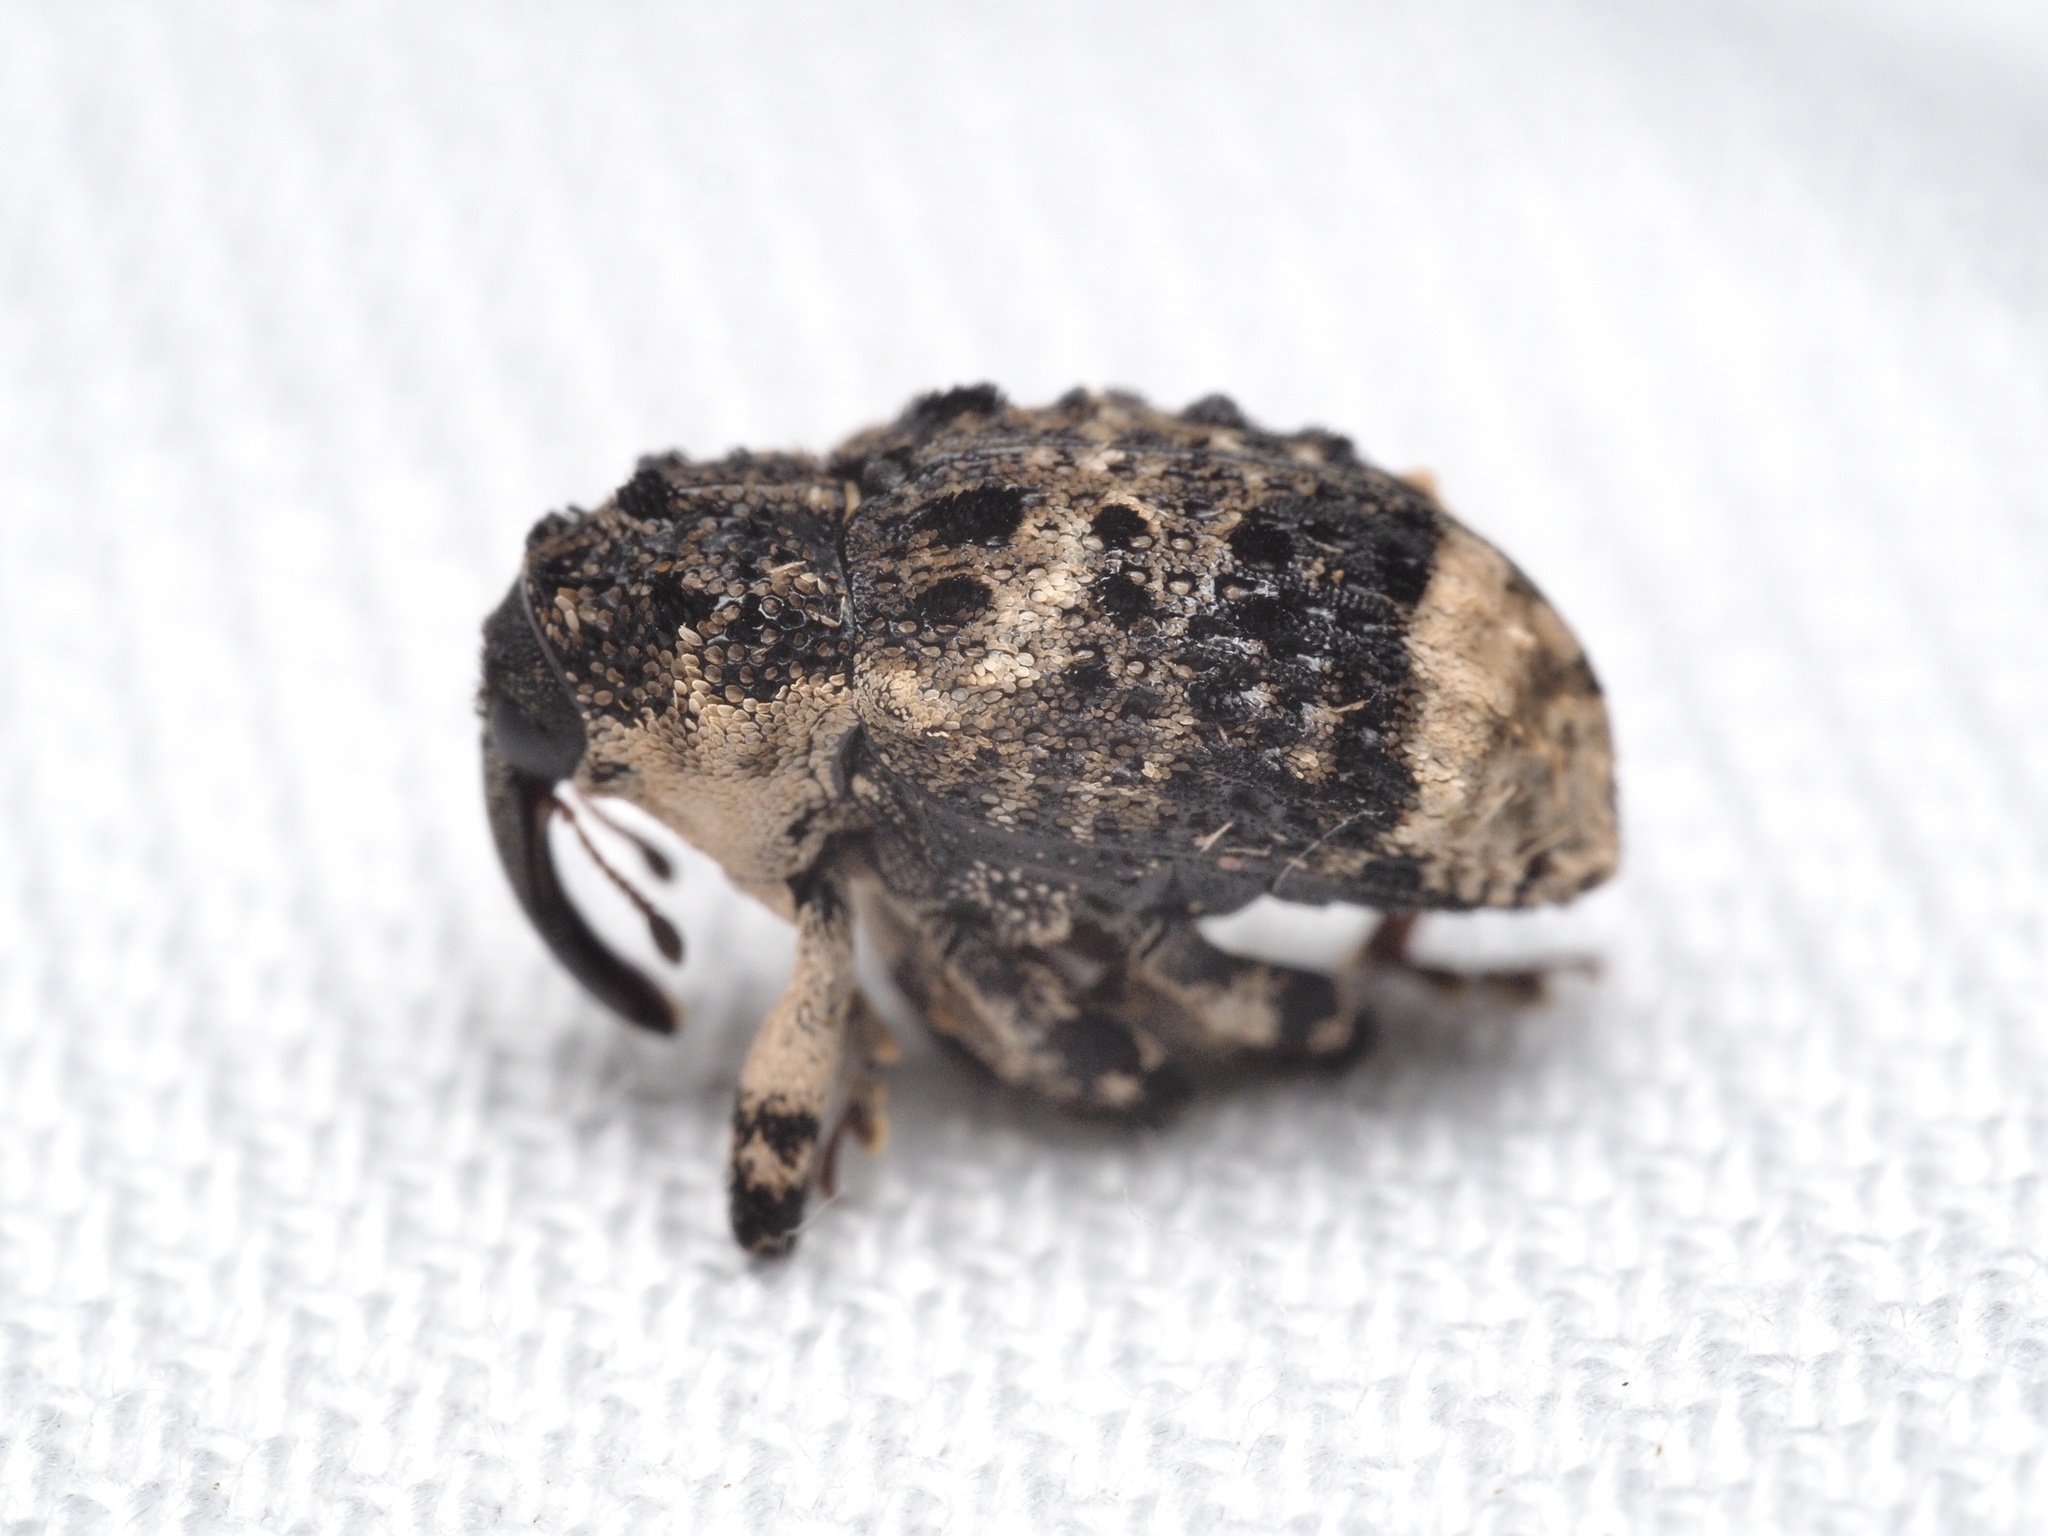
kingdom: Animalia
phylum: Arthropoda
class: Insecta
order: Coleoptera
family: Curculionidae
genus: Cryptorhynchus
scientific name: Cryptorhynchus lapathi
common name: Weevil
